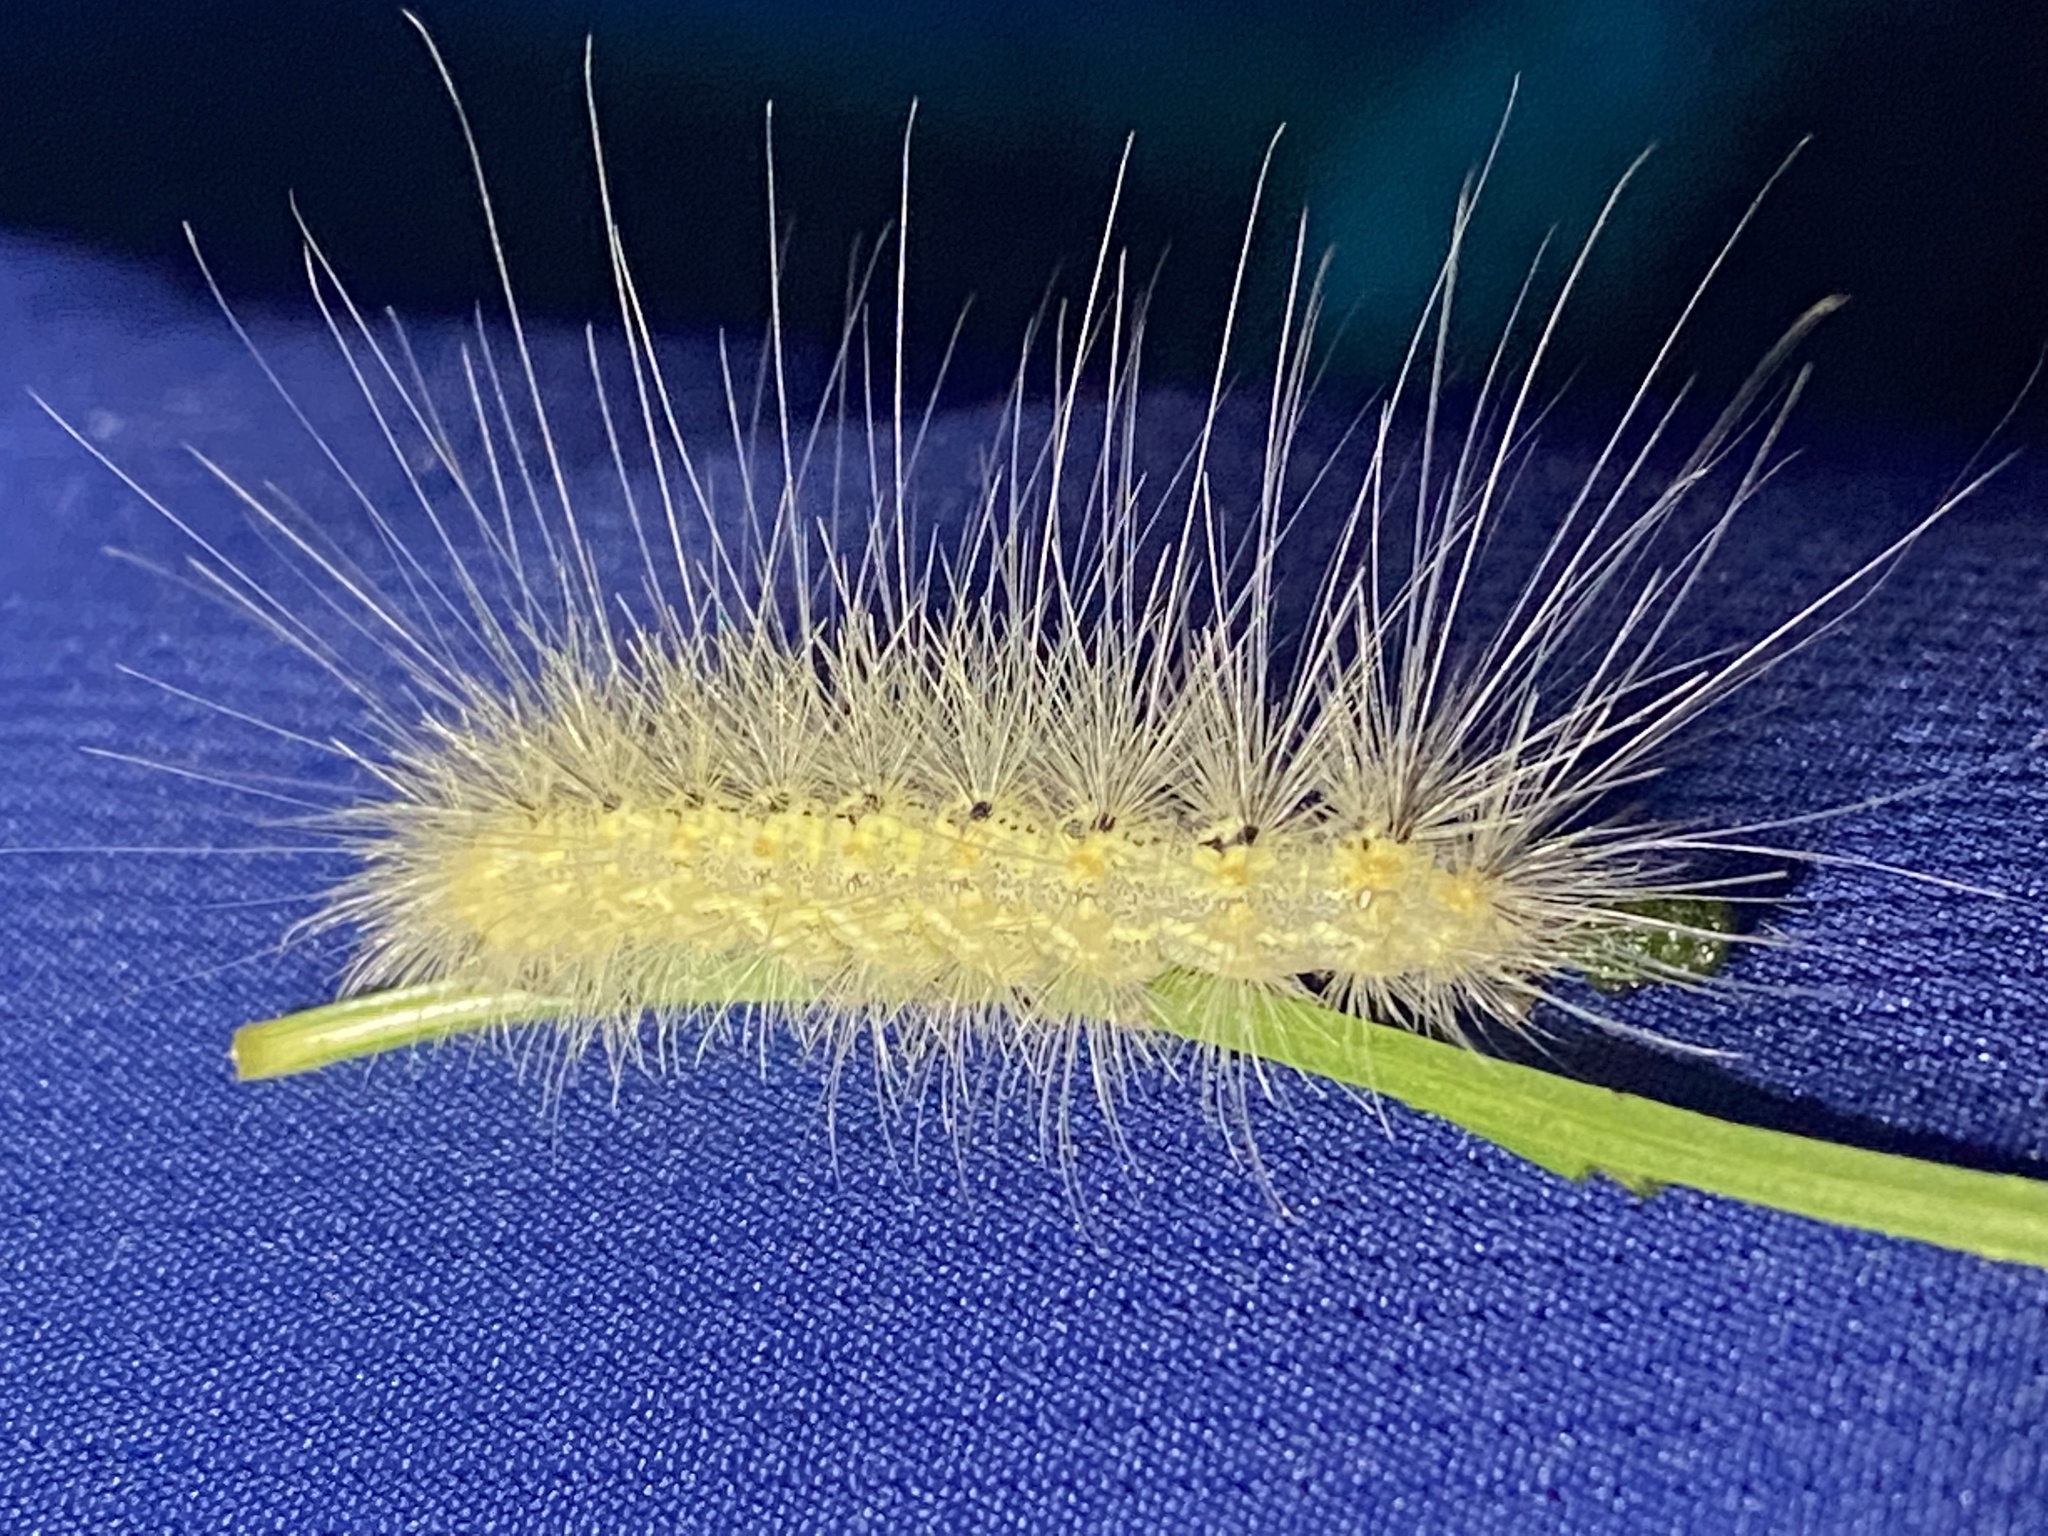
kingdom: Animalia
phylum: Arthropoda
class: Insecta
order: Lepidoptera
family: Erebidae
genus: Hyphantria
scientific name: Hyphantria cunea
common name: American white moth
